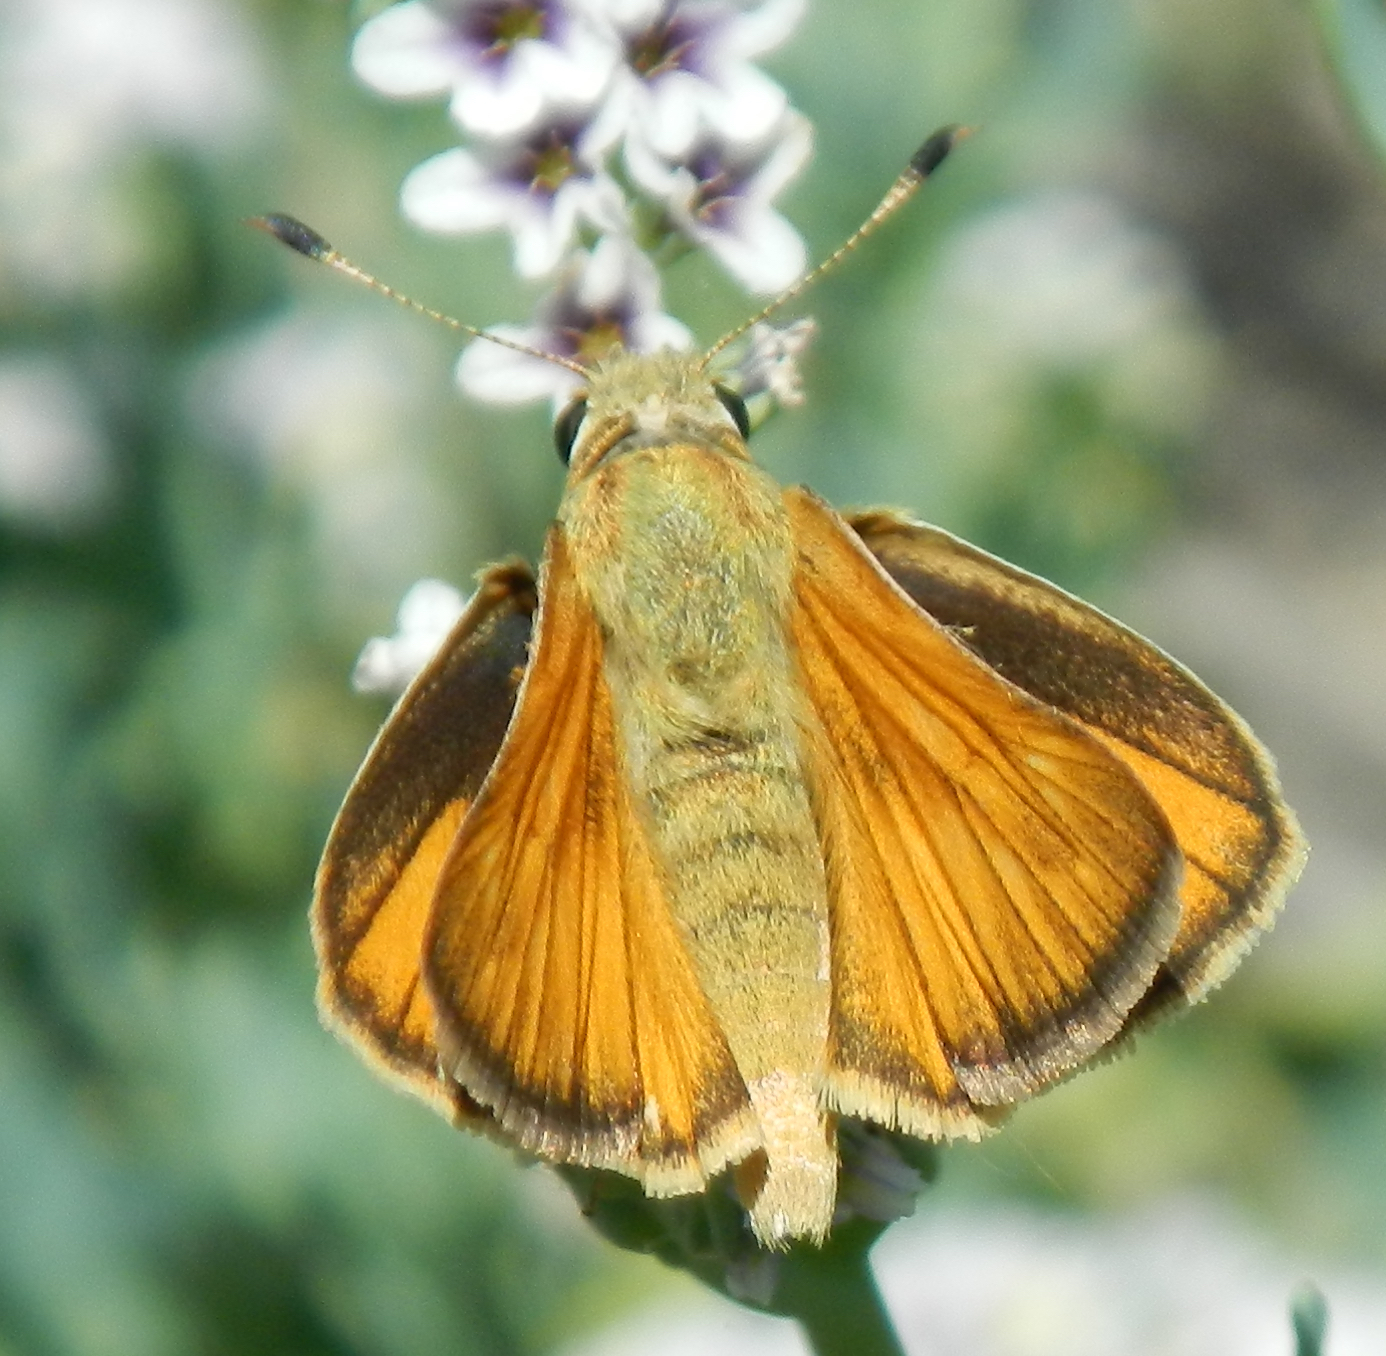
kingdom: Animalia
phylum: Arthropoda
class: Insecta
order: Lepidoptera
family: Hesperiidae
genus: Ochlodes
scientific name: Ochlodes sylvanoides
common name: Woodland skipper
